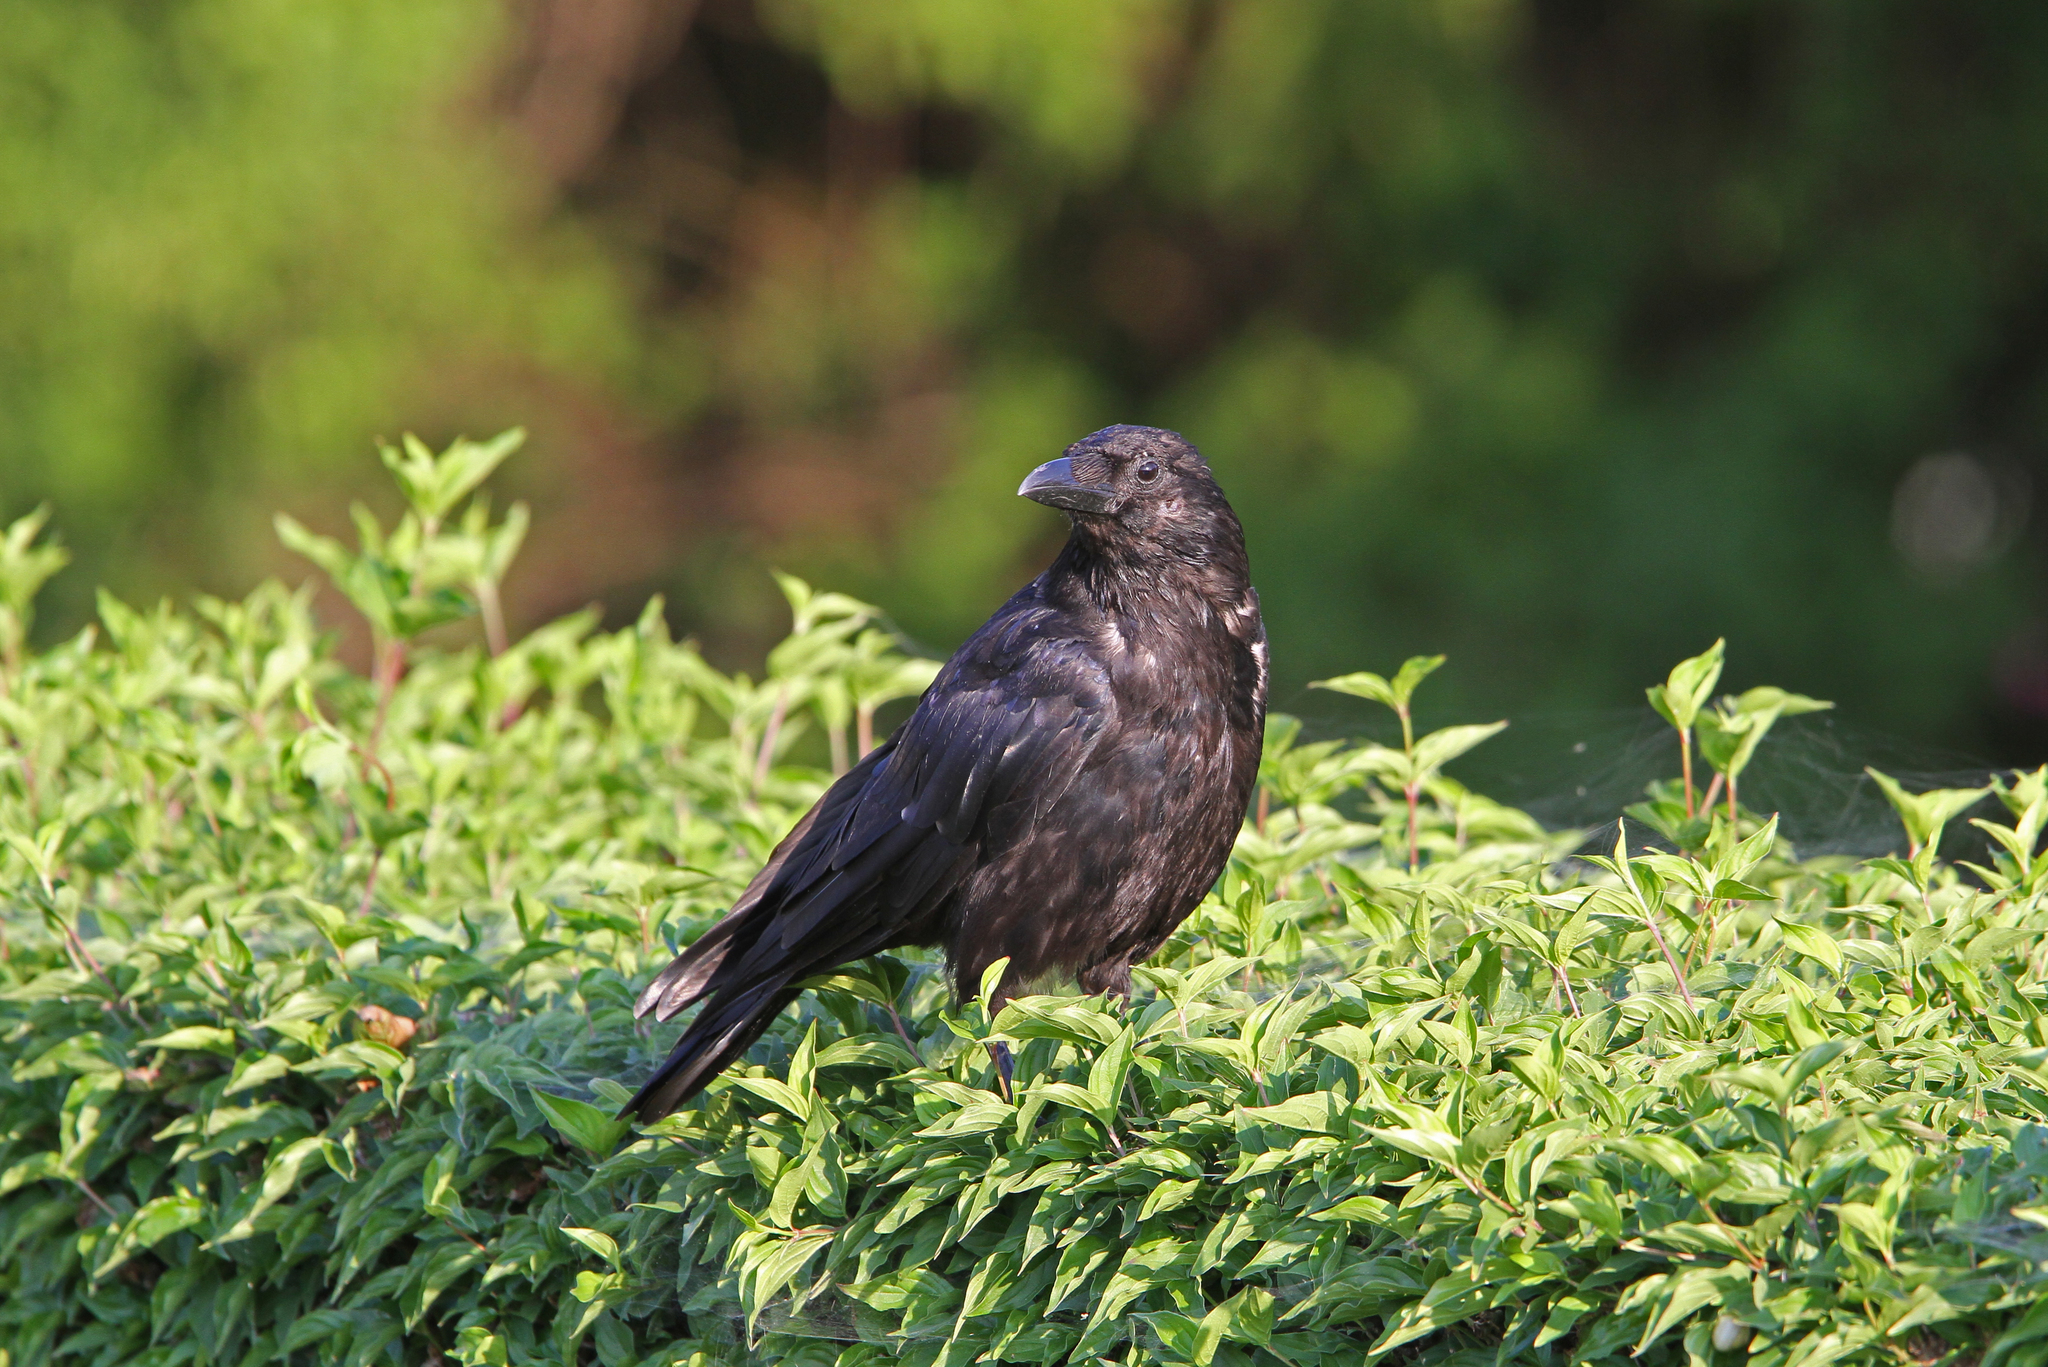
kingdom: Animalia
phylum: Chordata
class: Aves
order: Passeriformes
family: Corvidae
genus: Corvus
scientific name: Corvus corone
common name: Carrion crow
